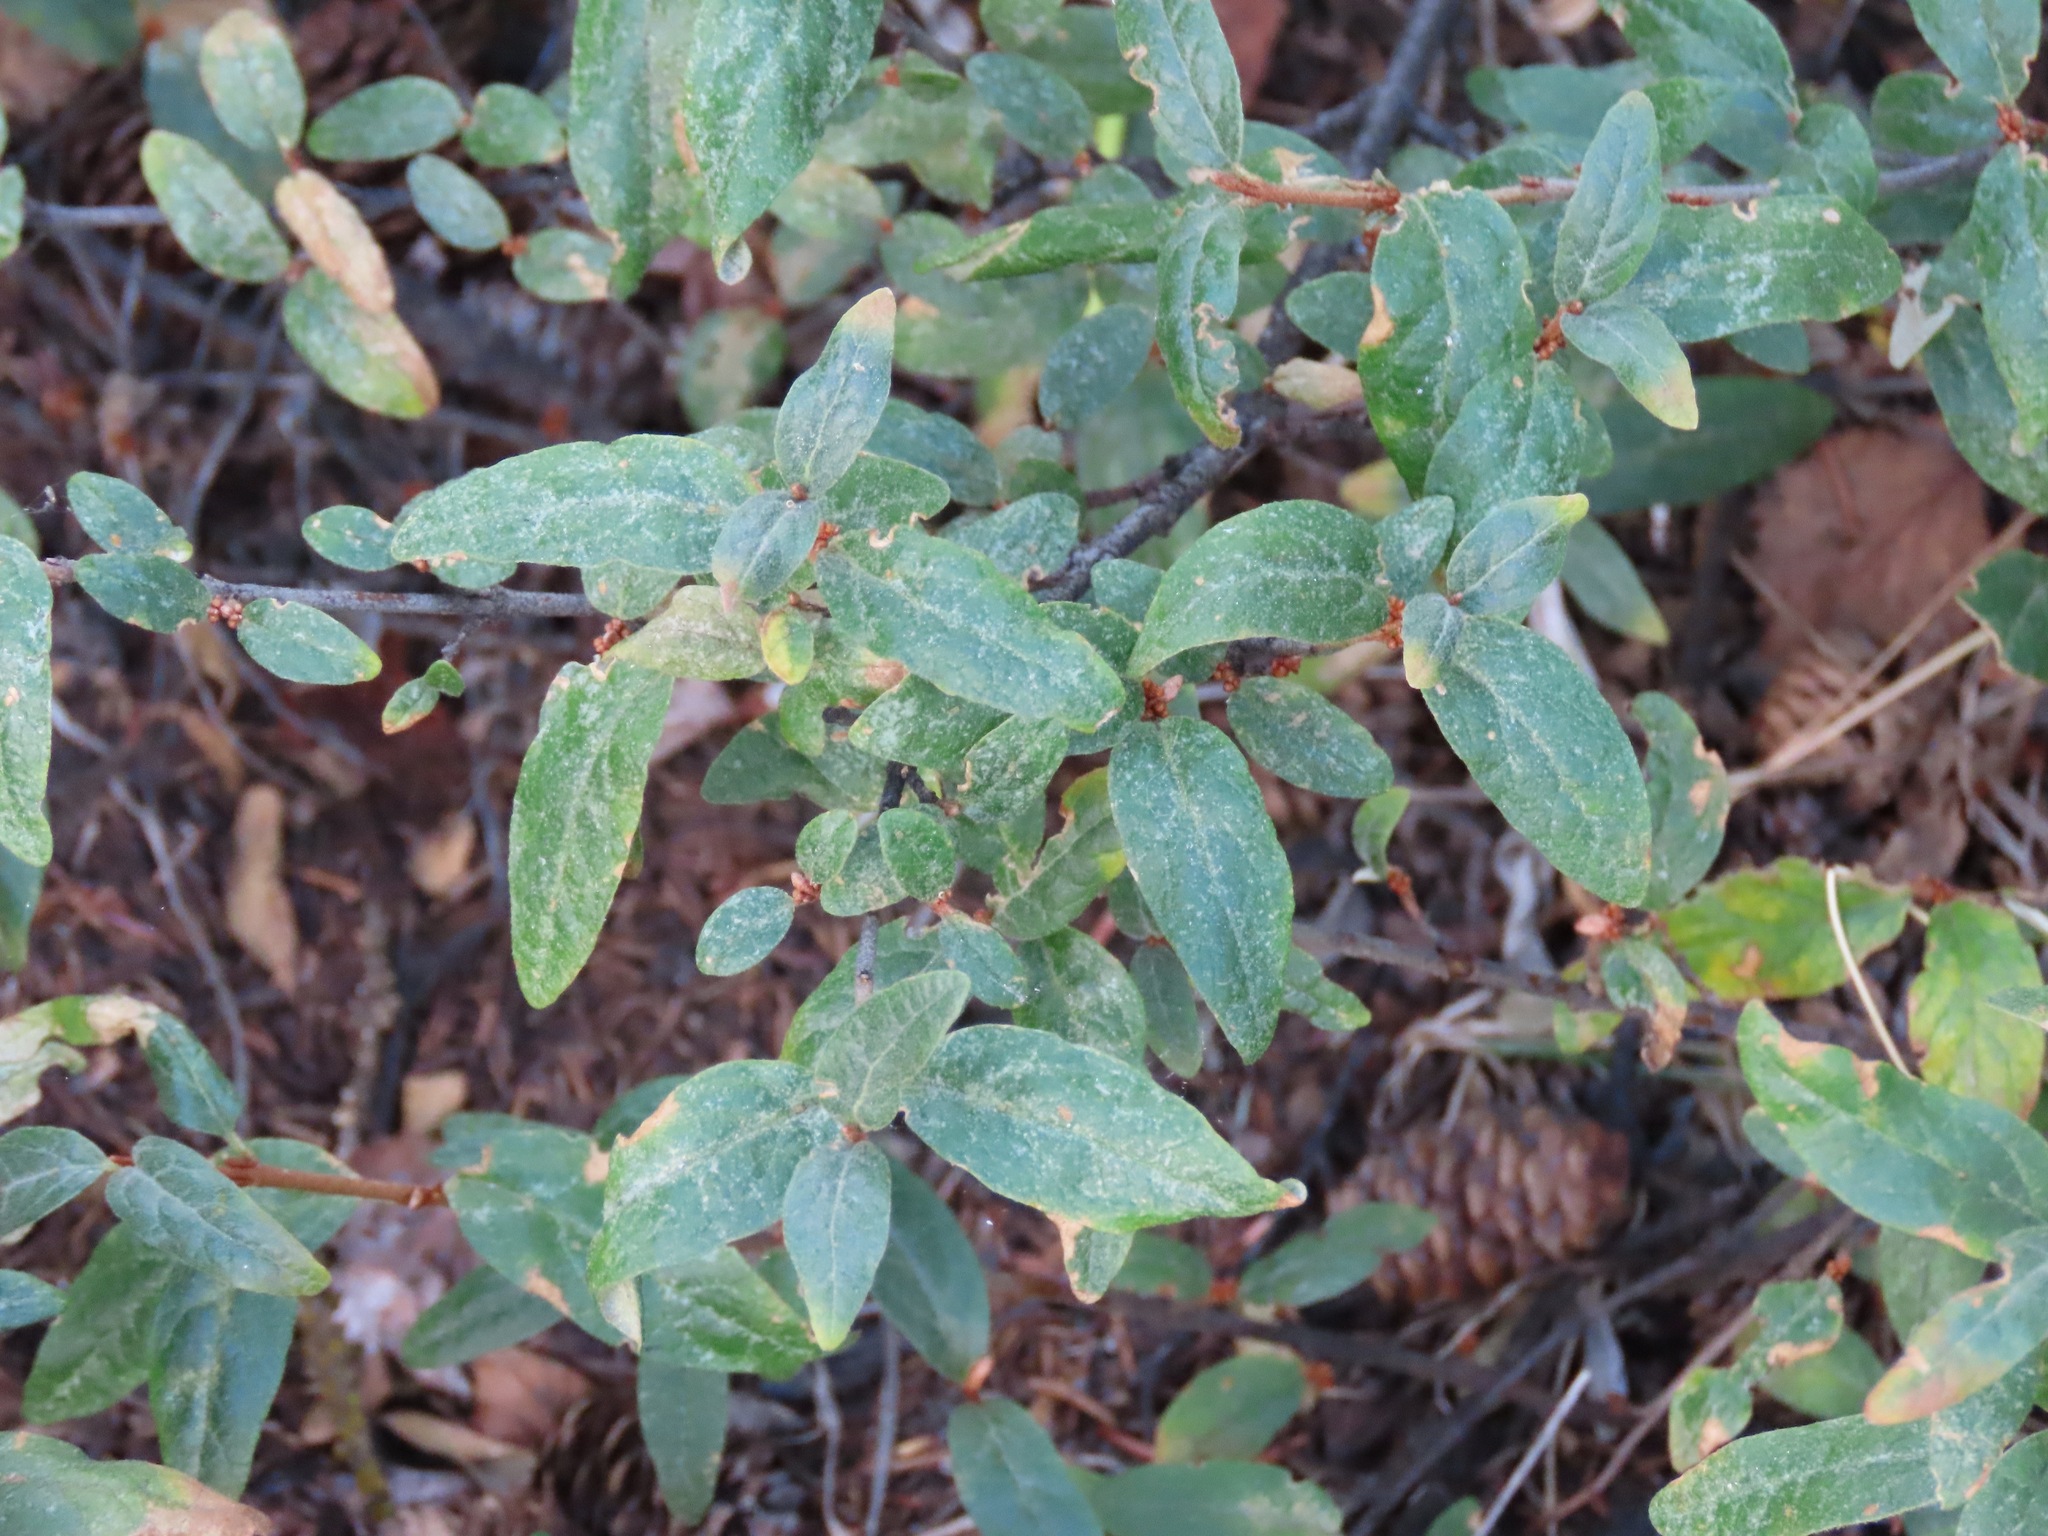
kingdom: Plantae
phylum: Tracheophyta
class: Magnoliopsida
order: Rosales
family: Elaeagnaceae
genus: Shepherdia
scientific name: Shepherdia canadensis
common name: Soapberry
